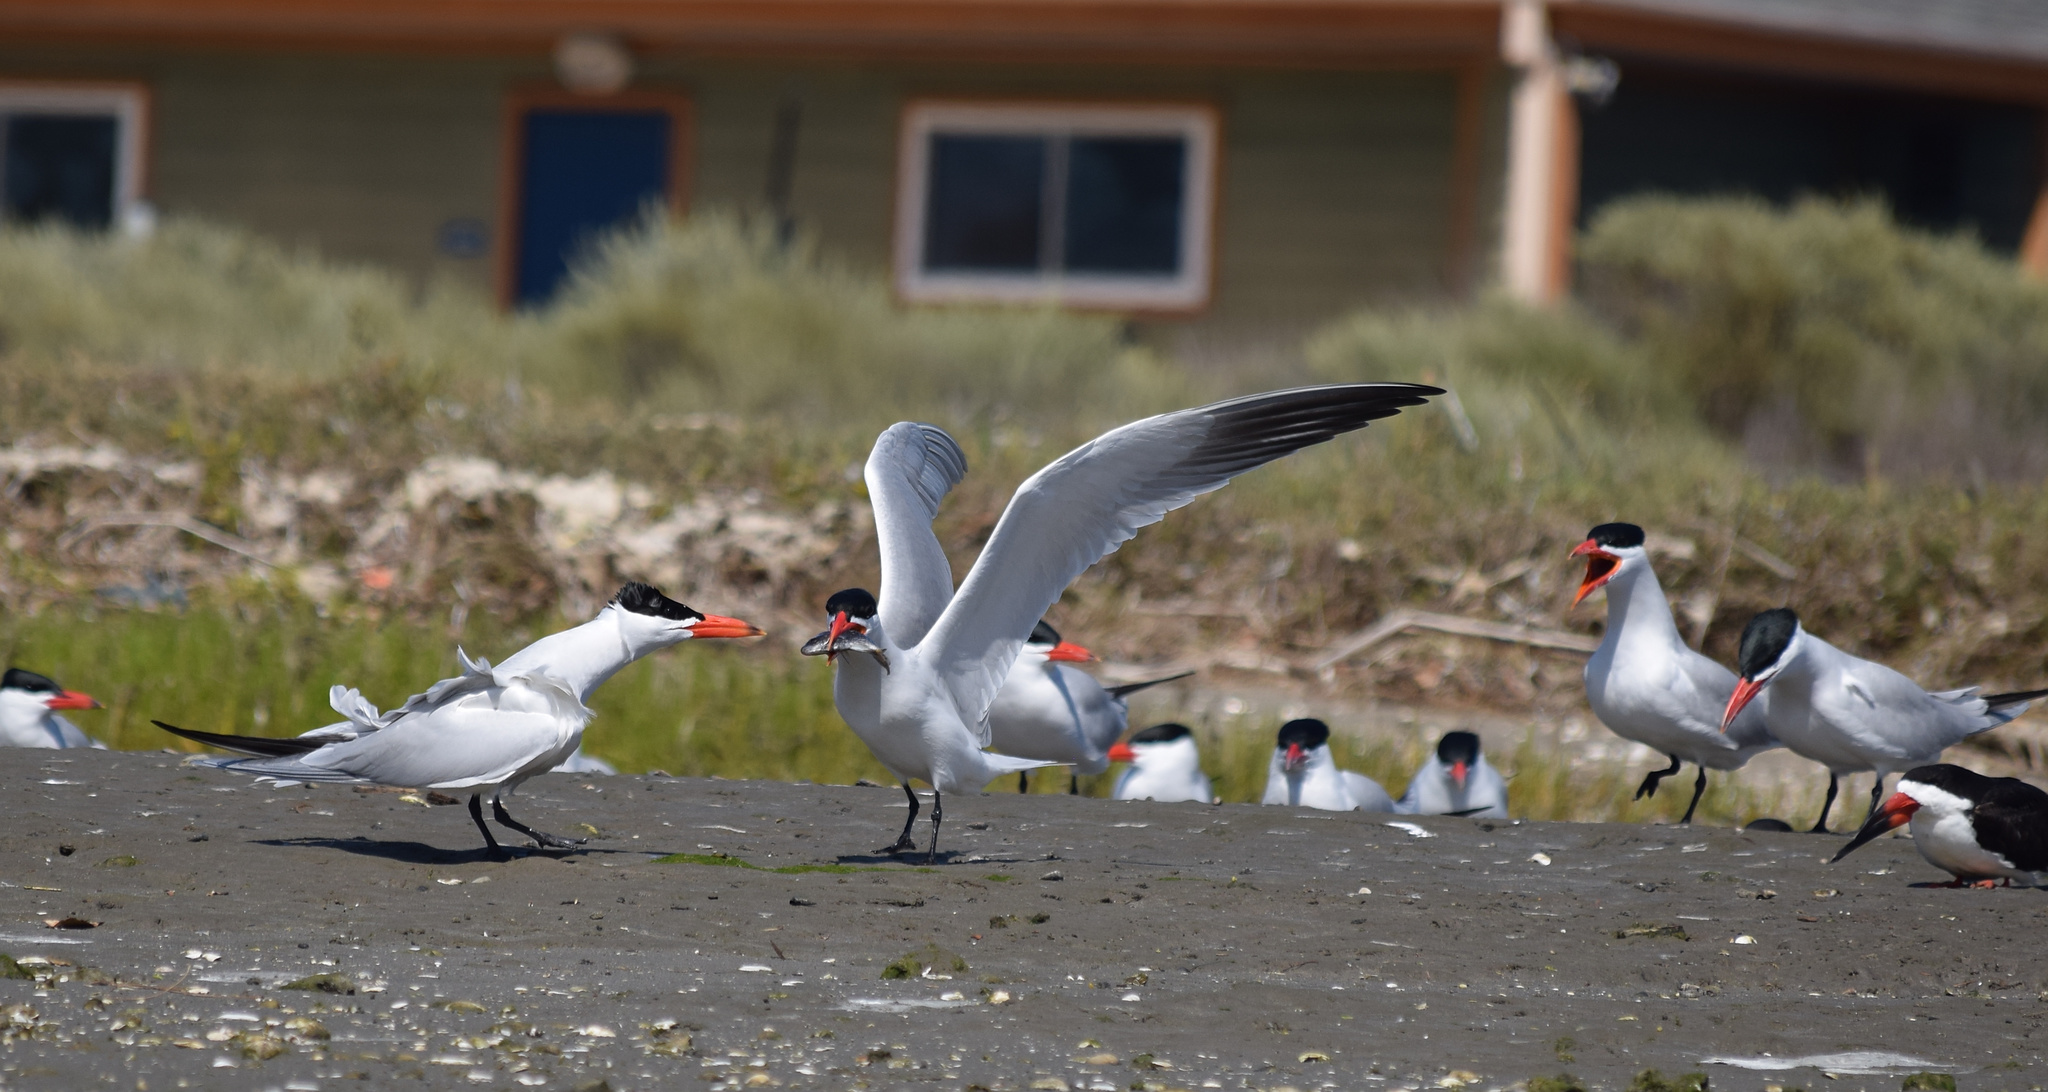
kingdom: Animalia
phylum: Chordata
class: Aves
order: Charadriiformes
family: Laridae
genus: Hydroprogne
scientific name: Hydroprogne caspia
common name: Caspian tern
